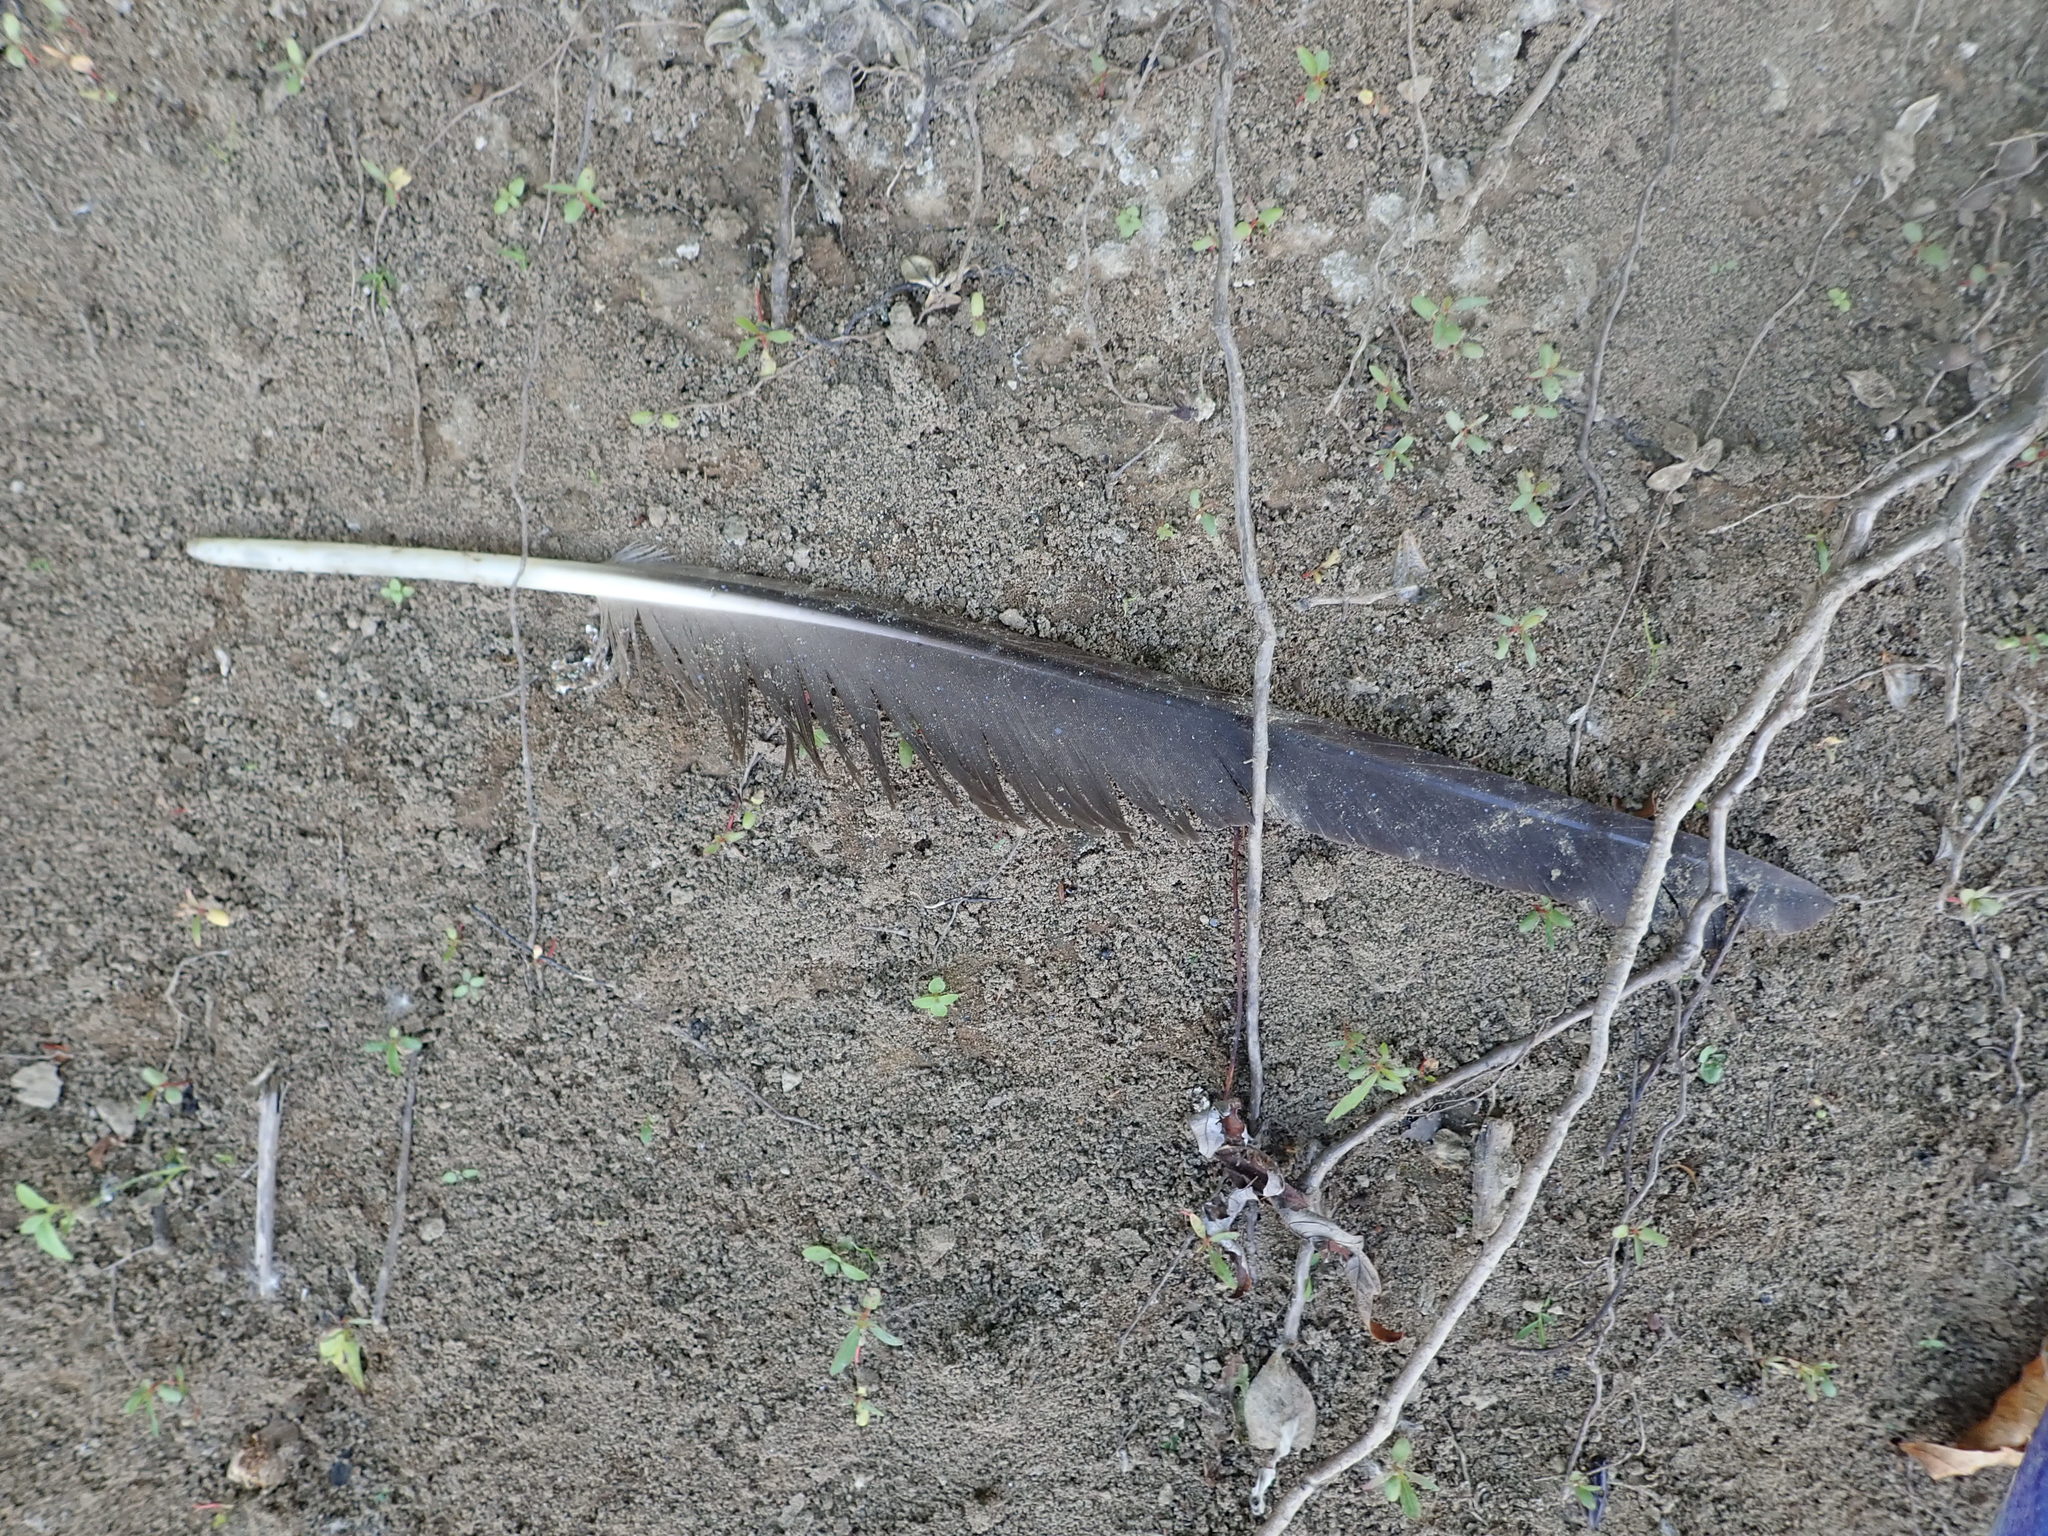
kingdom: Animalia
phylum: Chordata
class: Aves
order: Anseriformes
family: Anatidae
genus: Branta
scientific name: Branta canadensis
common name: Canada goose
